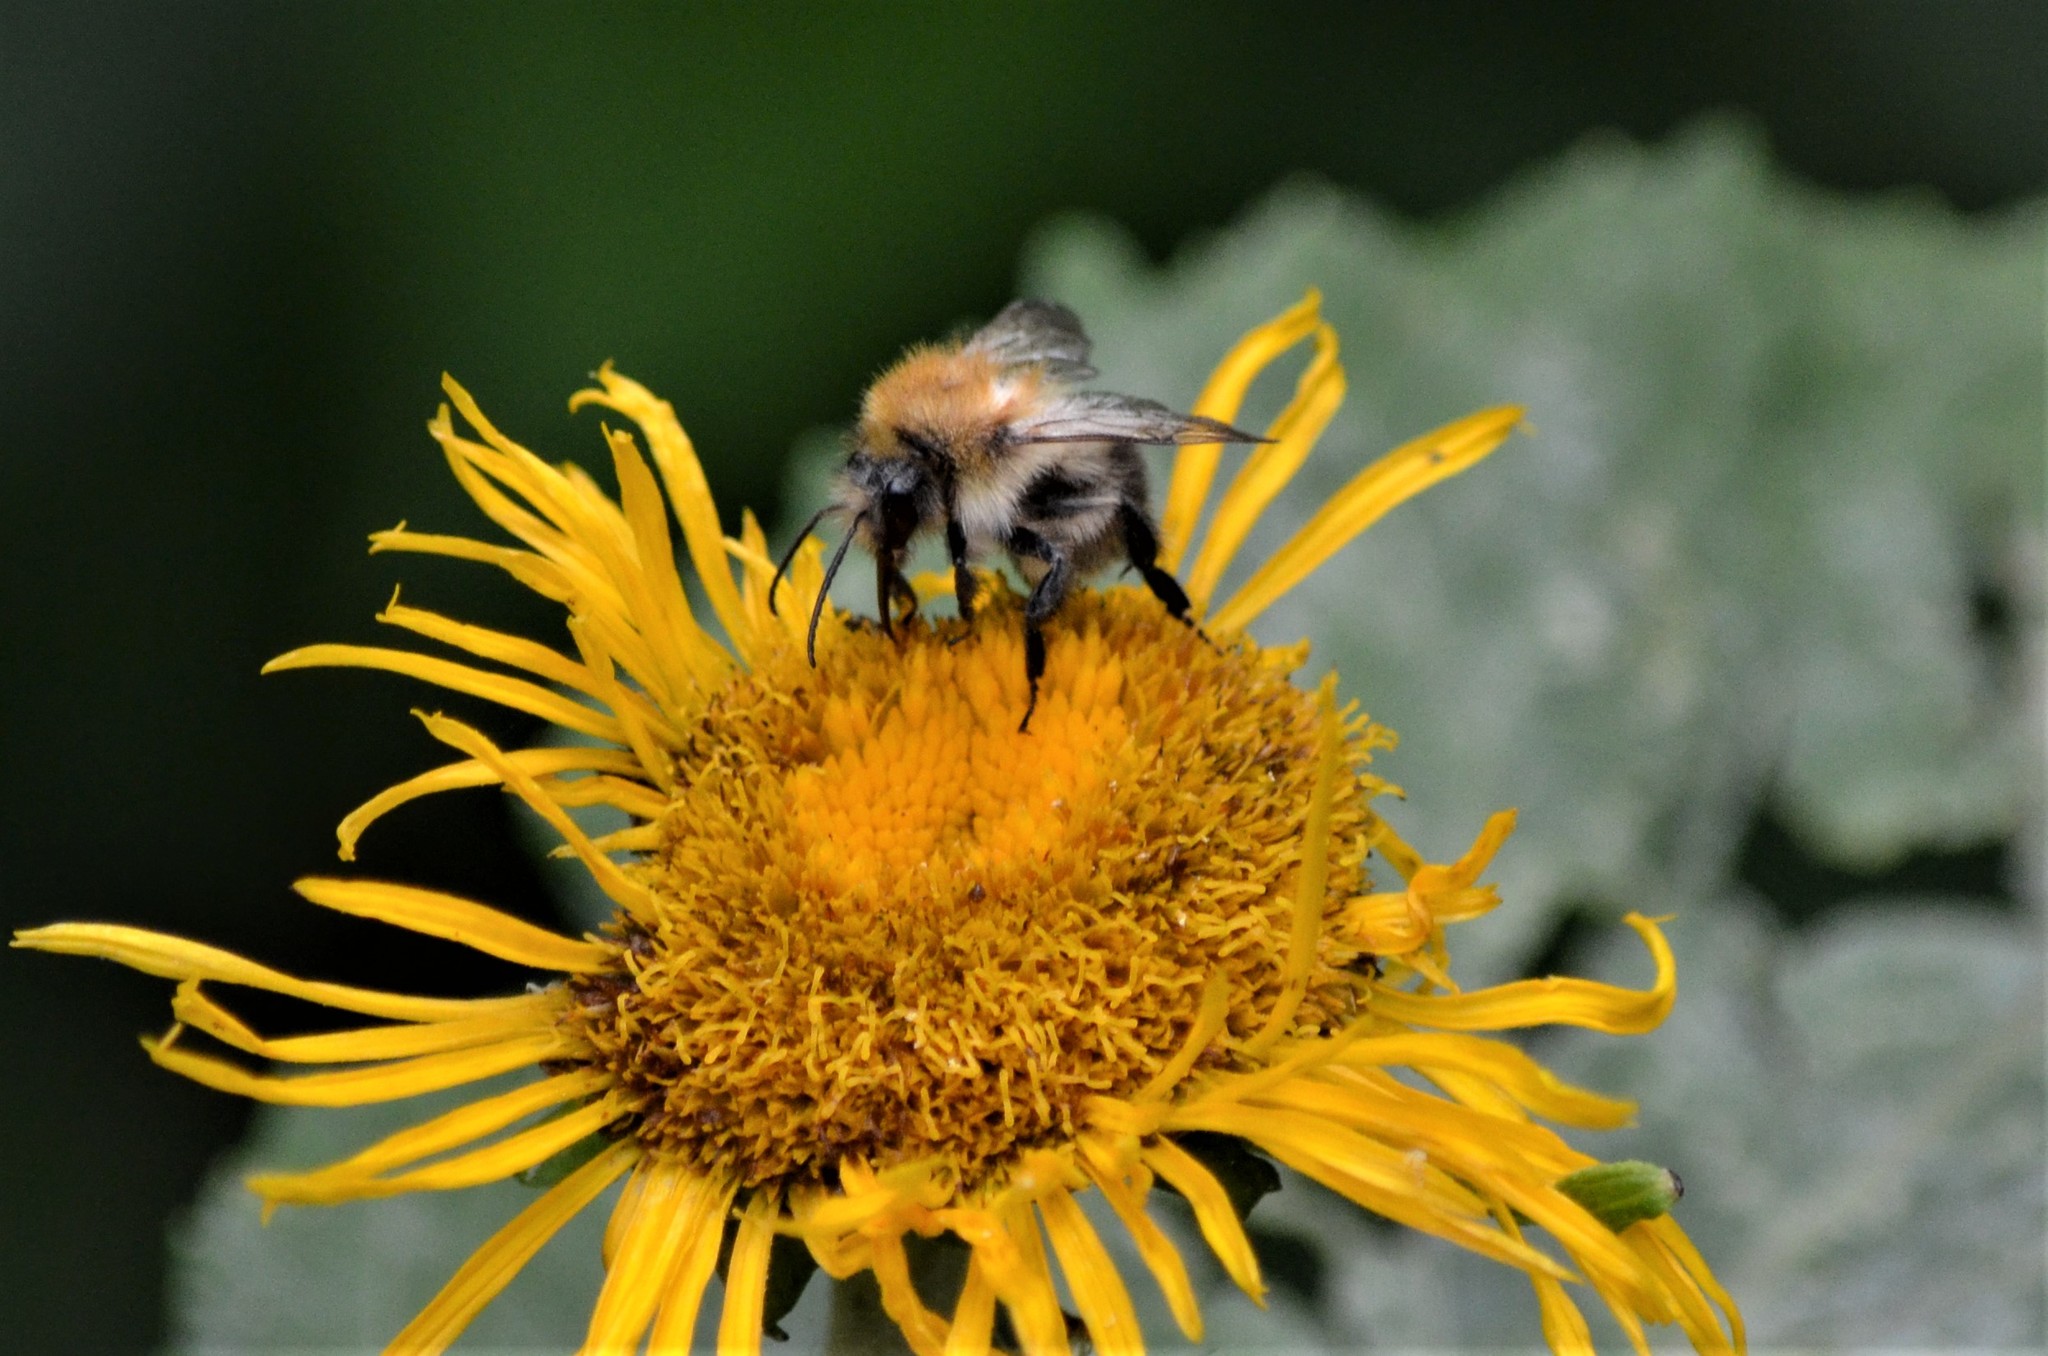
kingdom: Animalia
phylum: Arthropoda
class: Insecta
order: Hymenoptera
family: Apidae
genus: Bombus
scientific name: Bombus pascuorum
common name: Common carder bee
